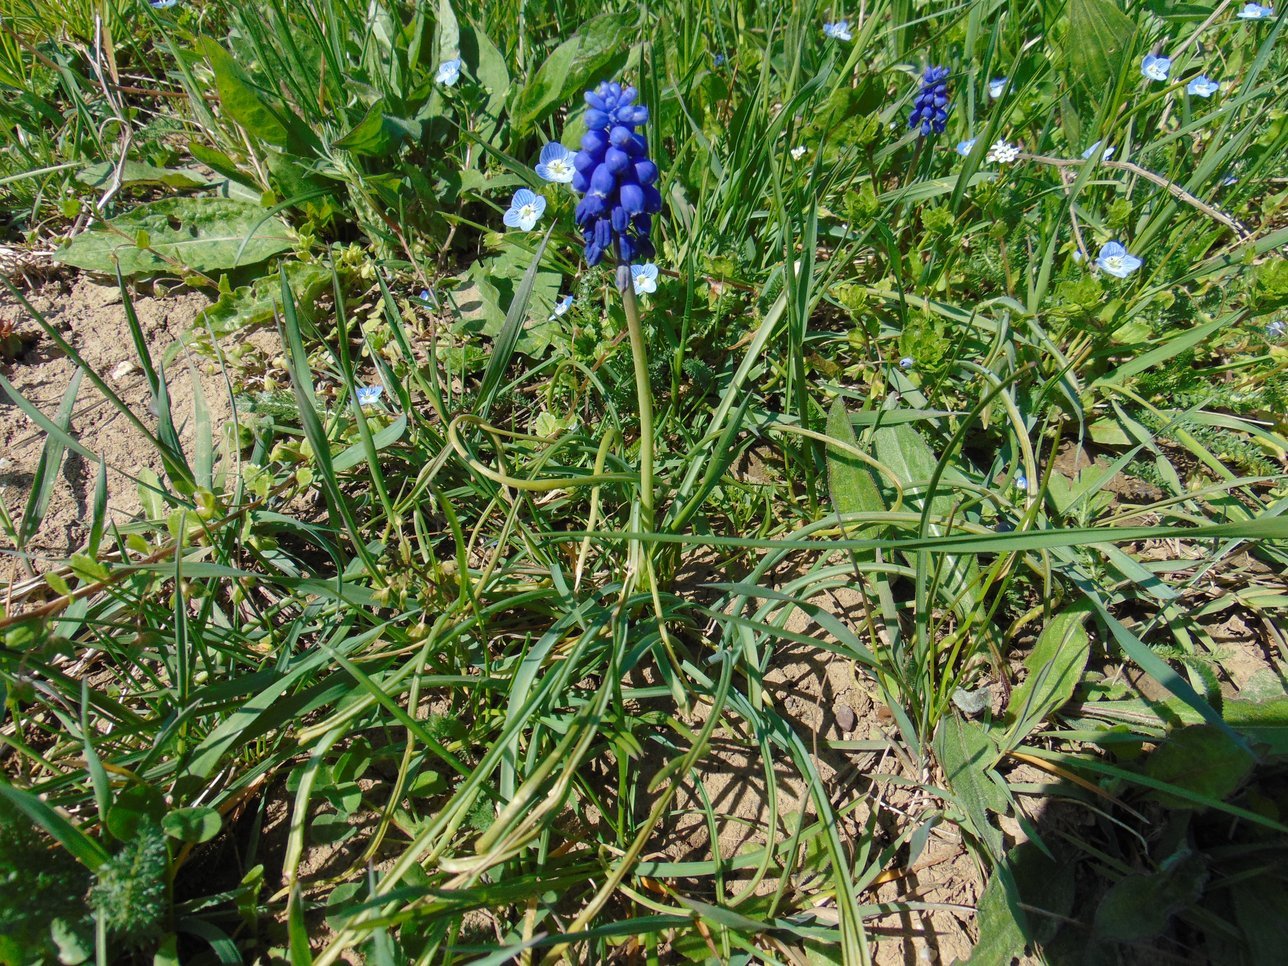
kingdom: Plantae
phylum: Tracheophyta
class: Liliopsida
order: Asparagales
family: Asparagaceae
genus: Muscari
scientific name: Muscari neglectum
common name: Grape-hyacinth
